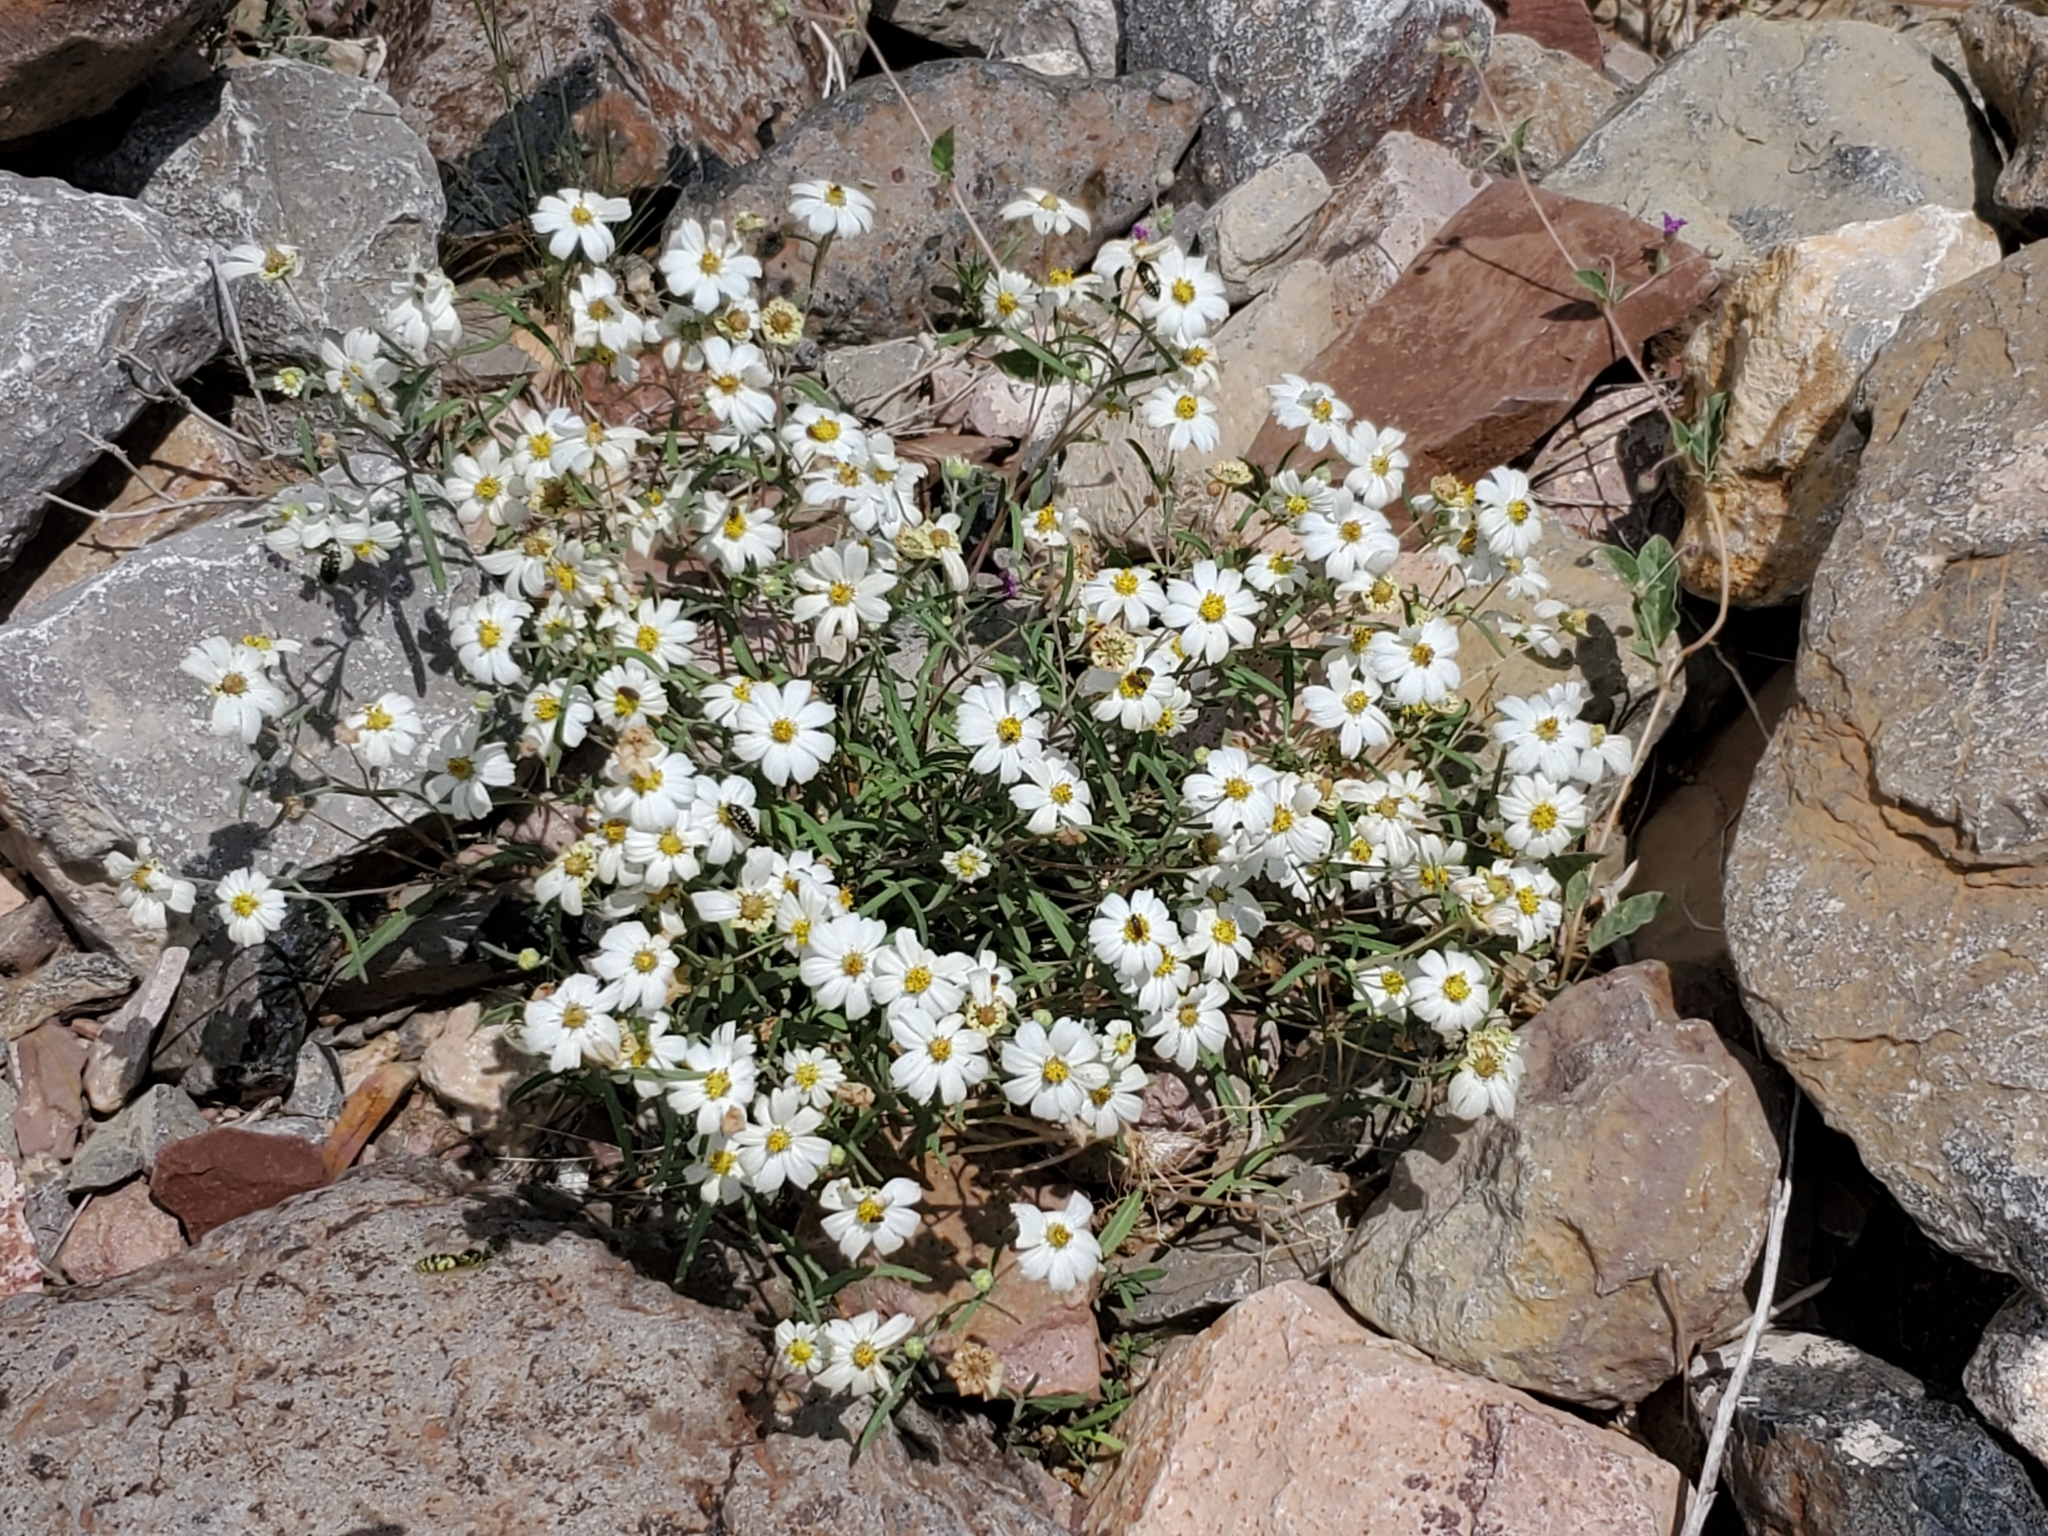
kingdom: Plantae
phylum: Tracheophyta
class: Magnoliopsida
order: Asterales
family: Asteraceae
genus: Melampodium
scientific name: Melampodium leucanthum
